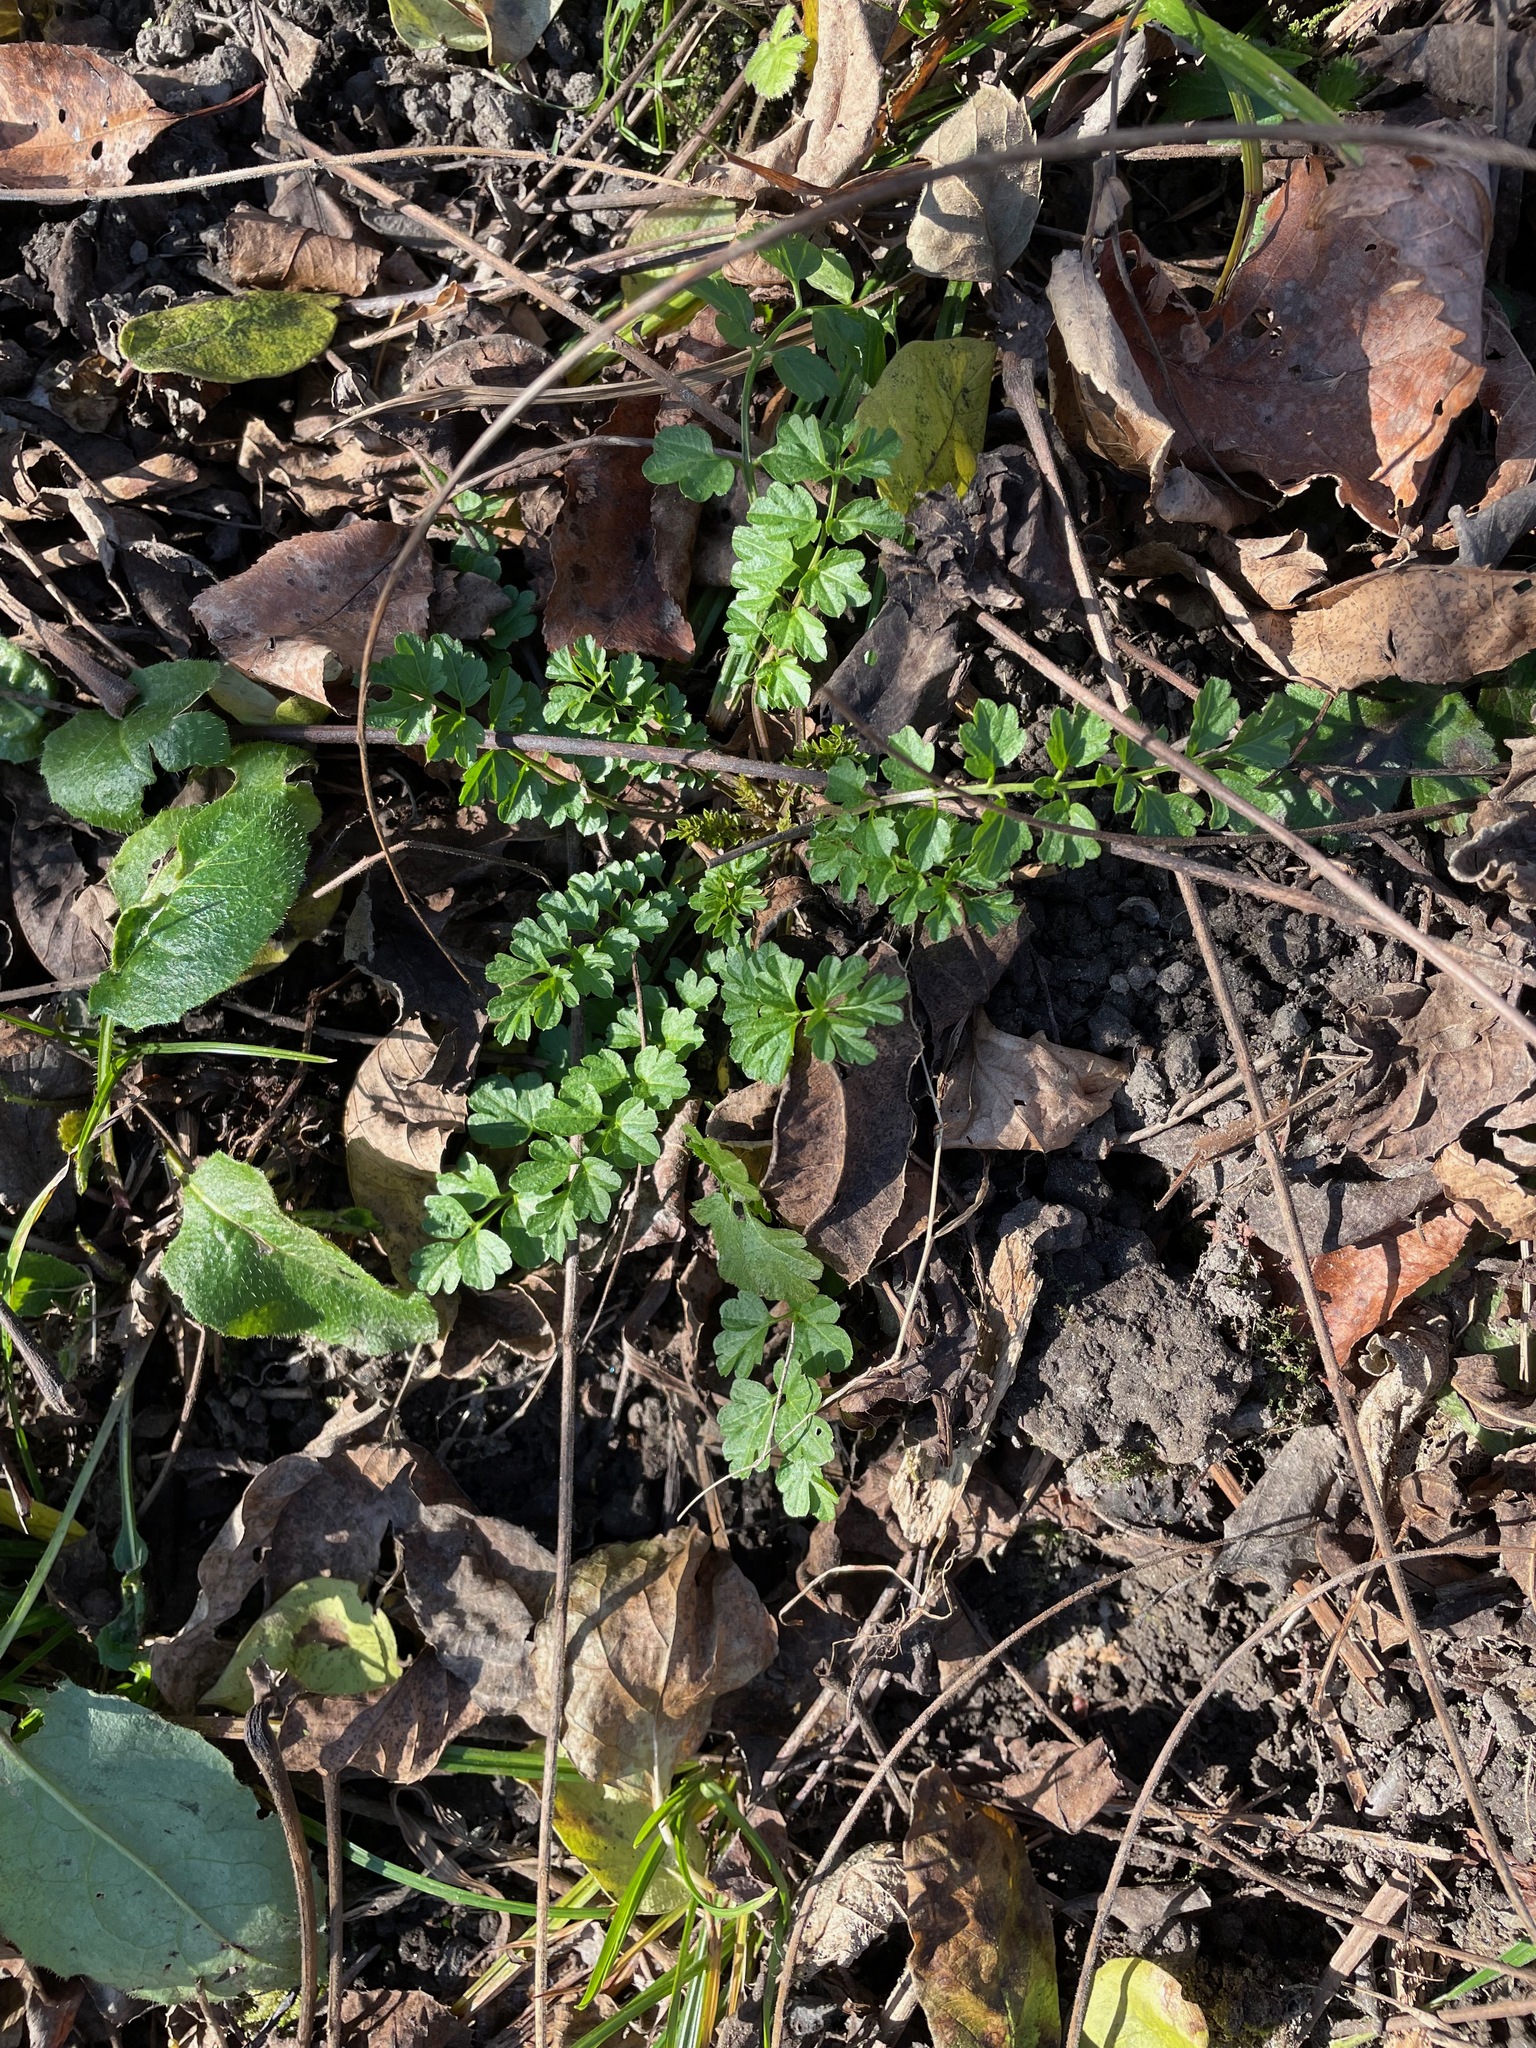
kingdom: Plantae
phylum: Tracheophyta
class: Magnoliopsida
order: Brassicales
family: Brassicaceae
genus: Cardamine
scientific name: Cardamine impatiens
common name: Narrow-leaved bitter-cress
